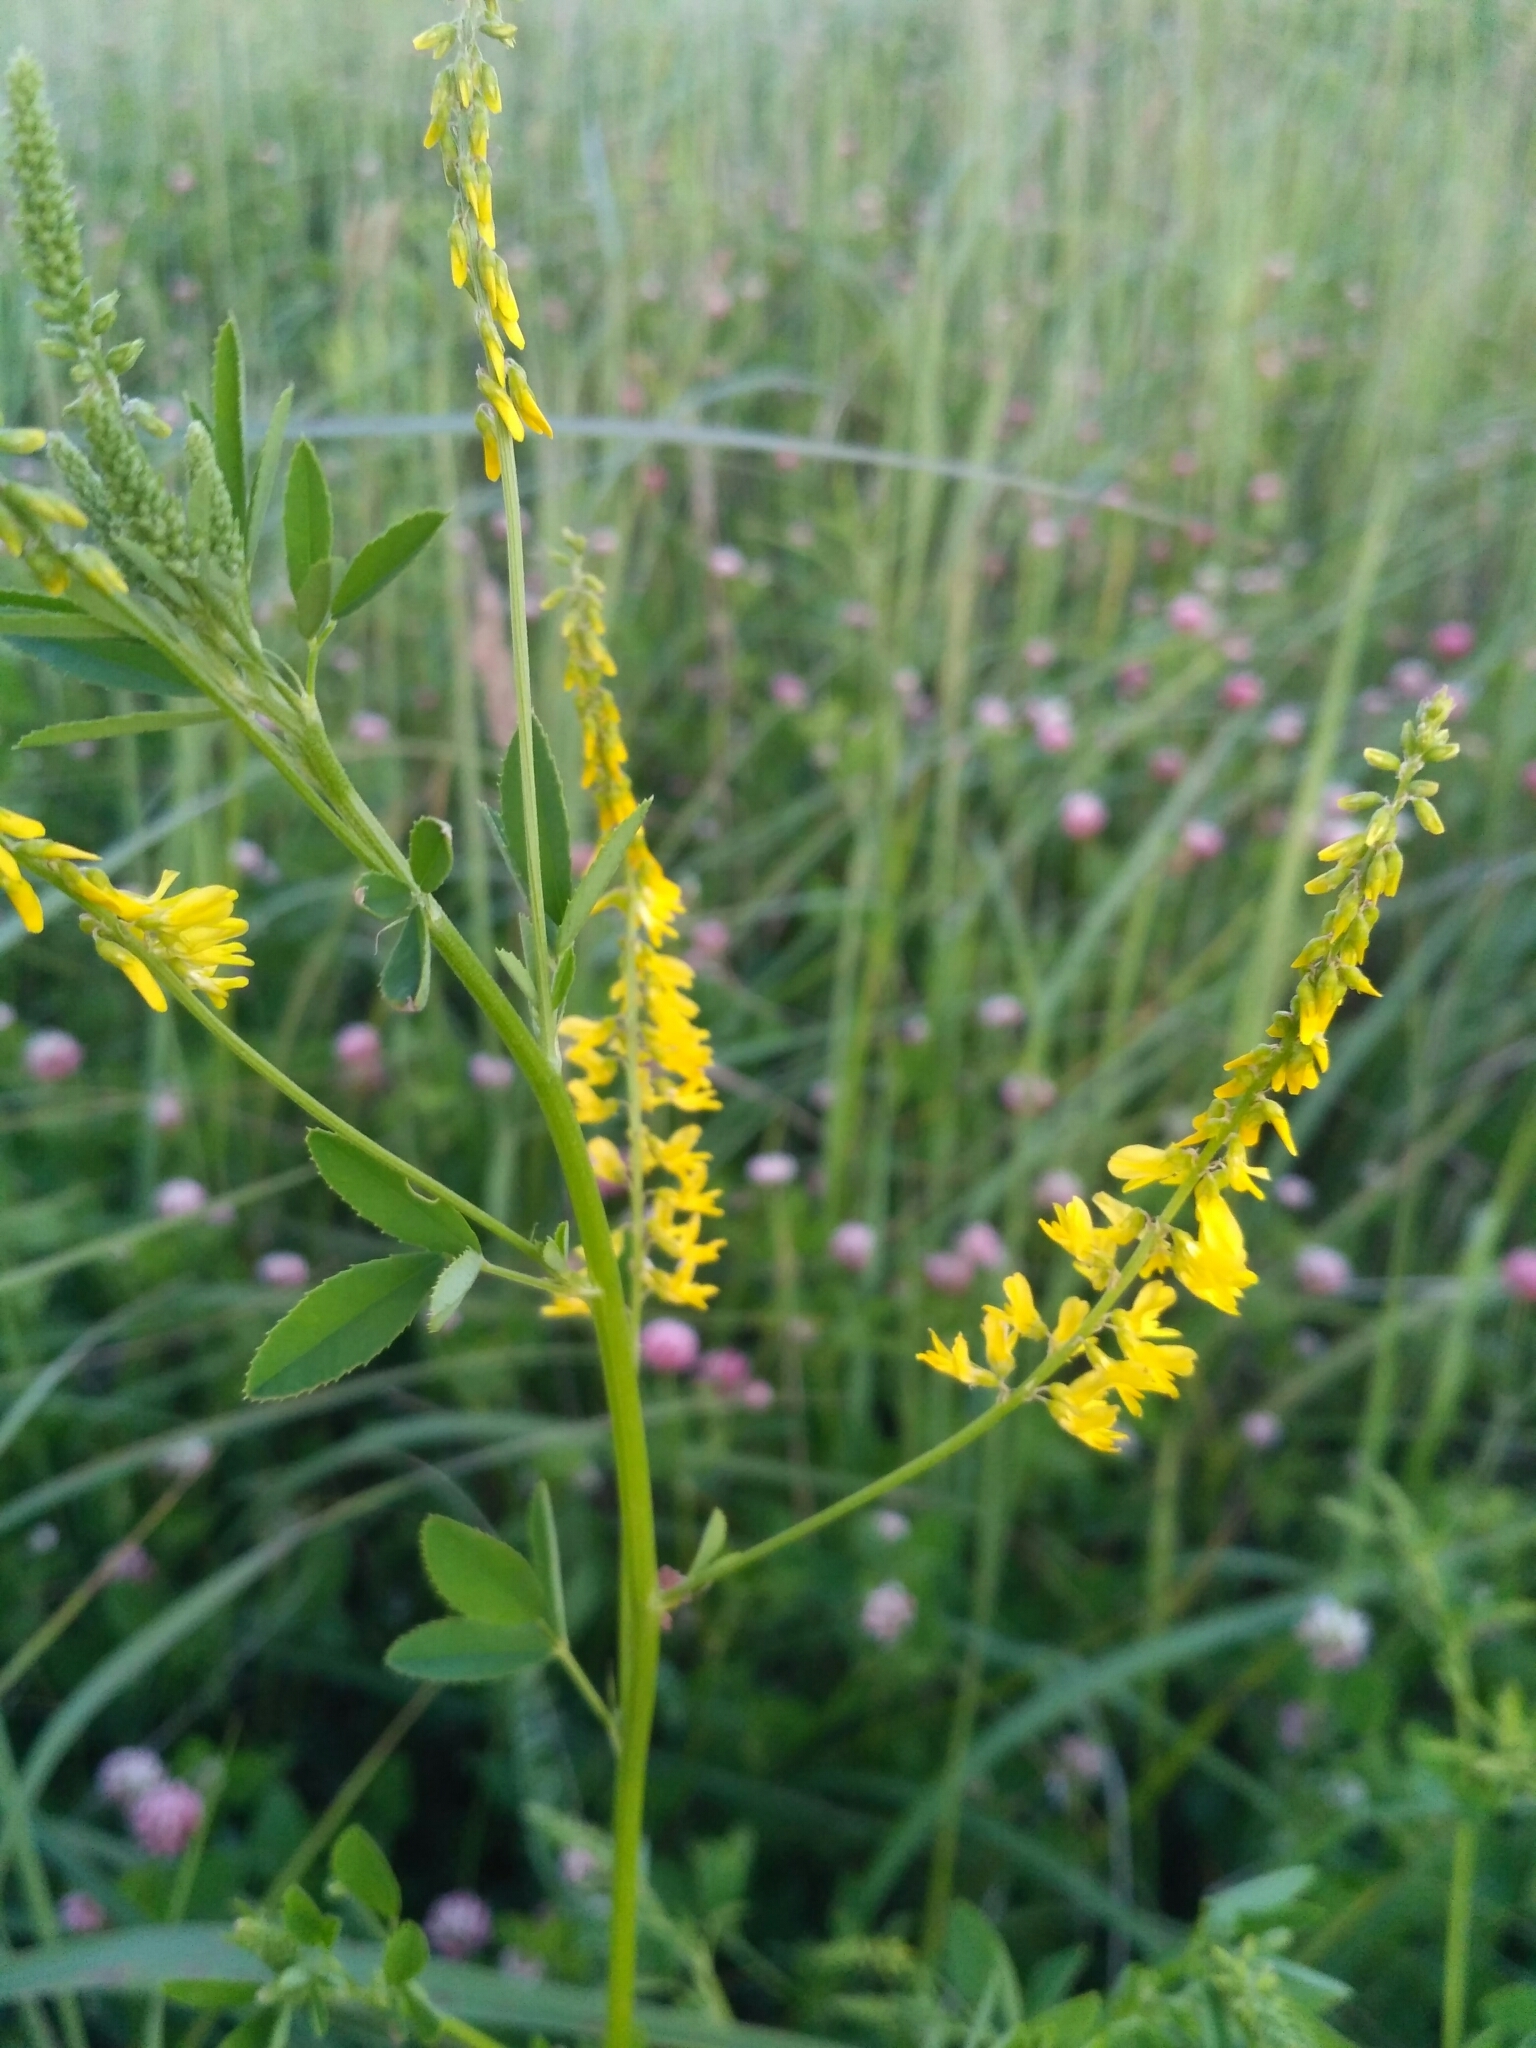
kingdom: Plantae
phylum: Tracheophyta
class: Magnoliopsida
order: Fabales
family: Fabaceae
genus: Melilotus
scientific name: Melilotus officinalis
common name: Sweetclover
